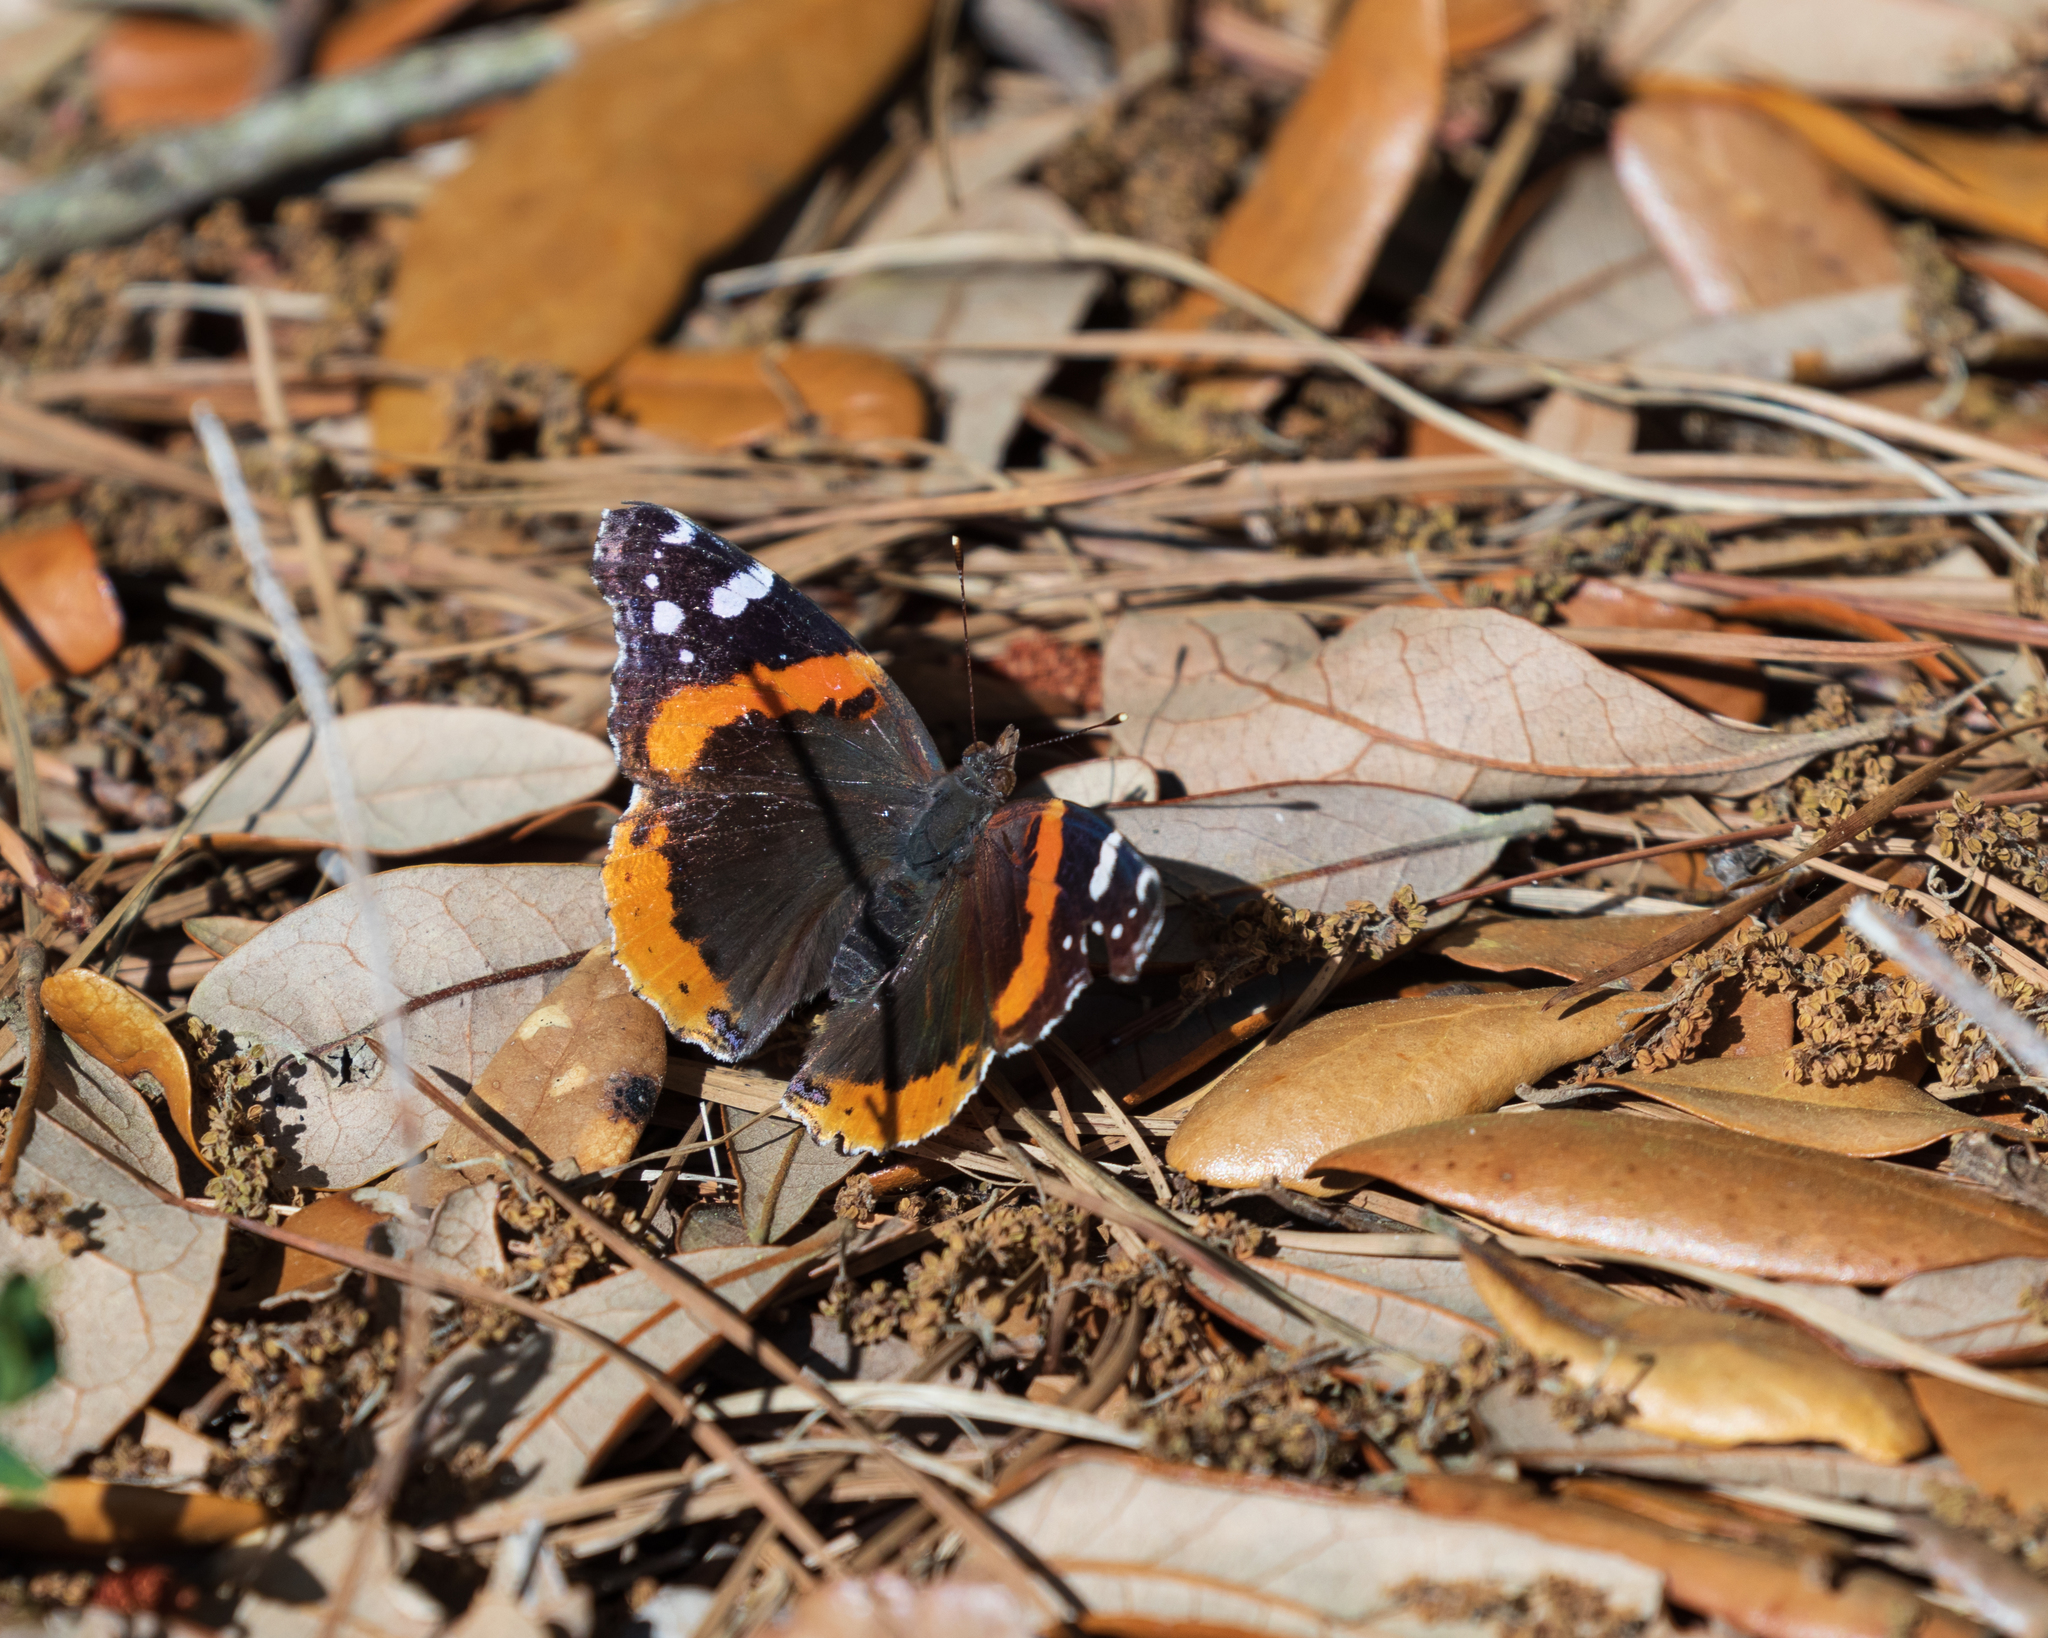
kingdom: Animalia
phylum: Arthropoda
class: Insecta
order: Lepidoptera
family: Nymphalidae
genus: Vanessa
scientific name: Vanessa atalanta
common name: Red admiral
